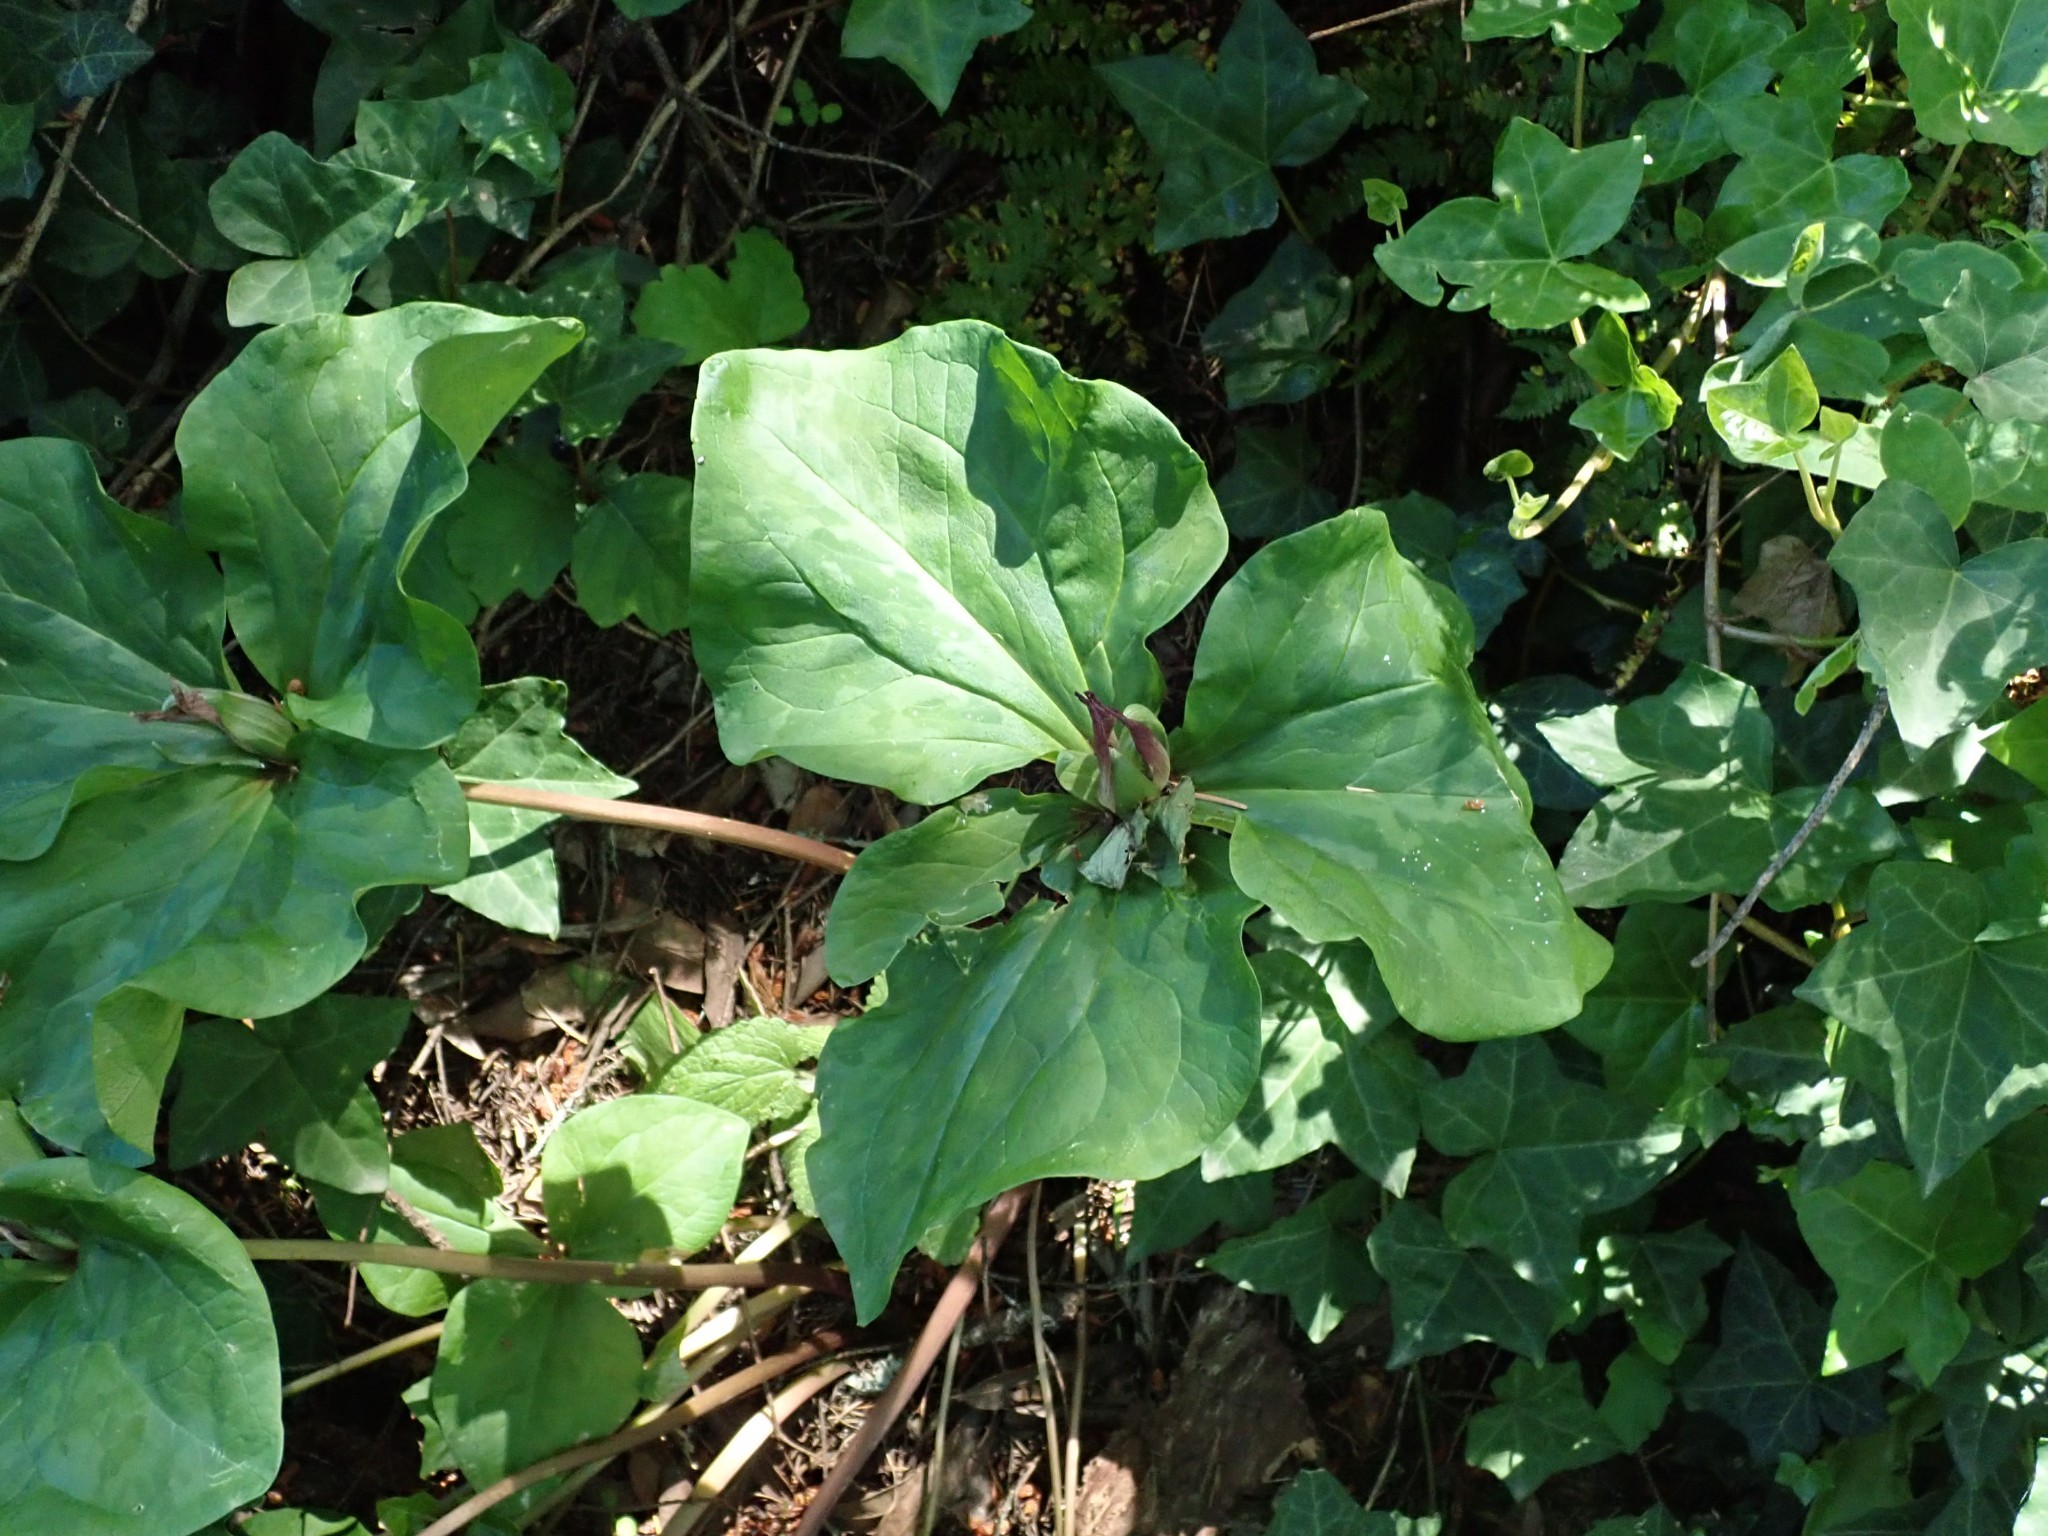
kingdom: Plantae
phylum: Tracheophyta
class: Liliopsida
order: Liliales
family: Melanthiaceae
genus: Trillium
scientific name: Trillium chloropetalum
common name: Giant trillium
